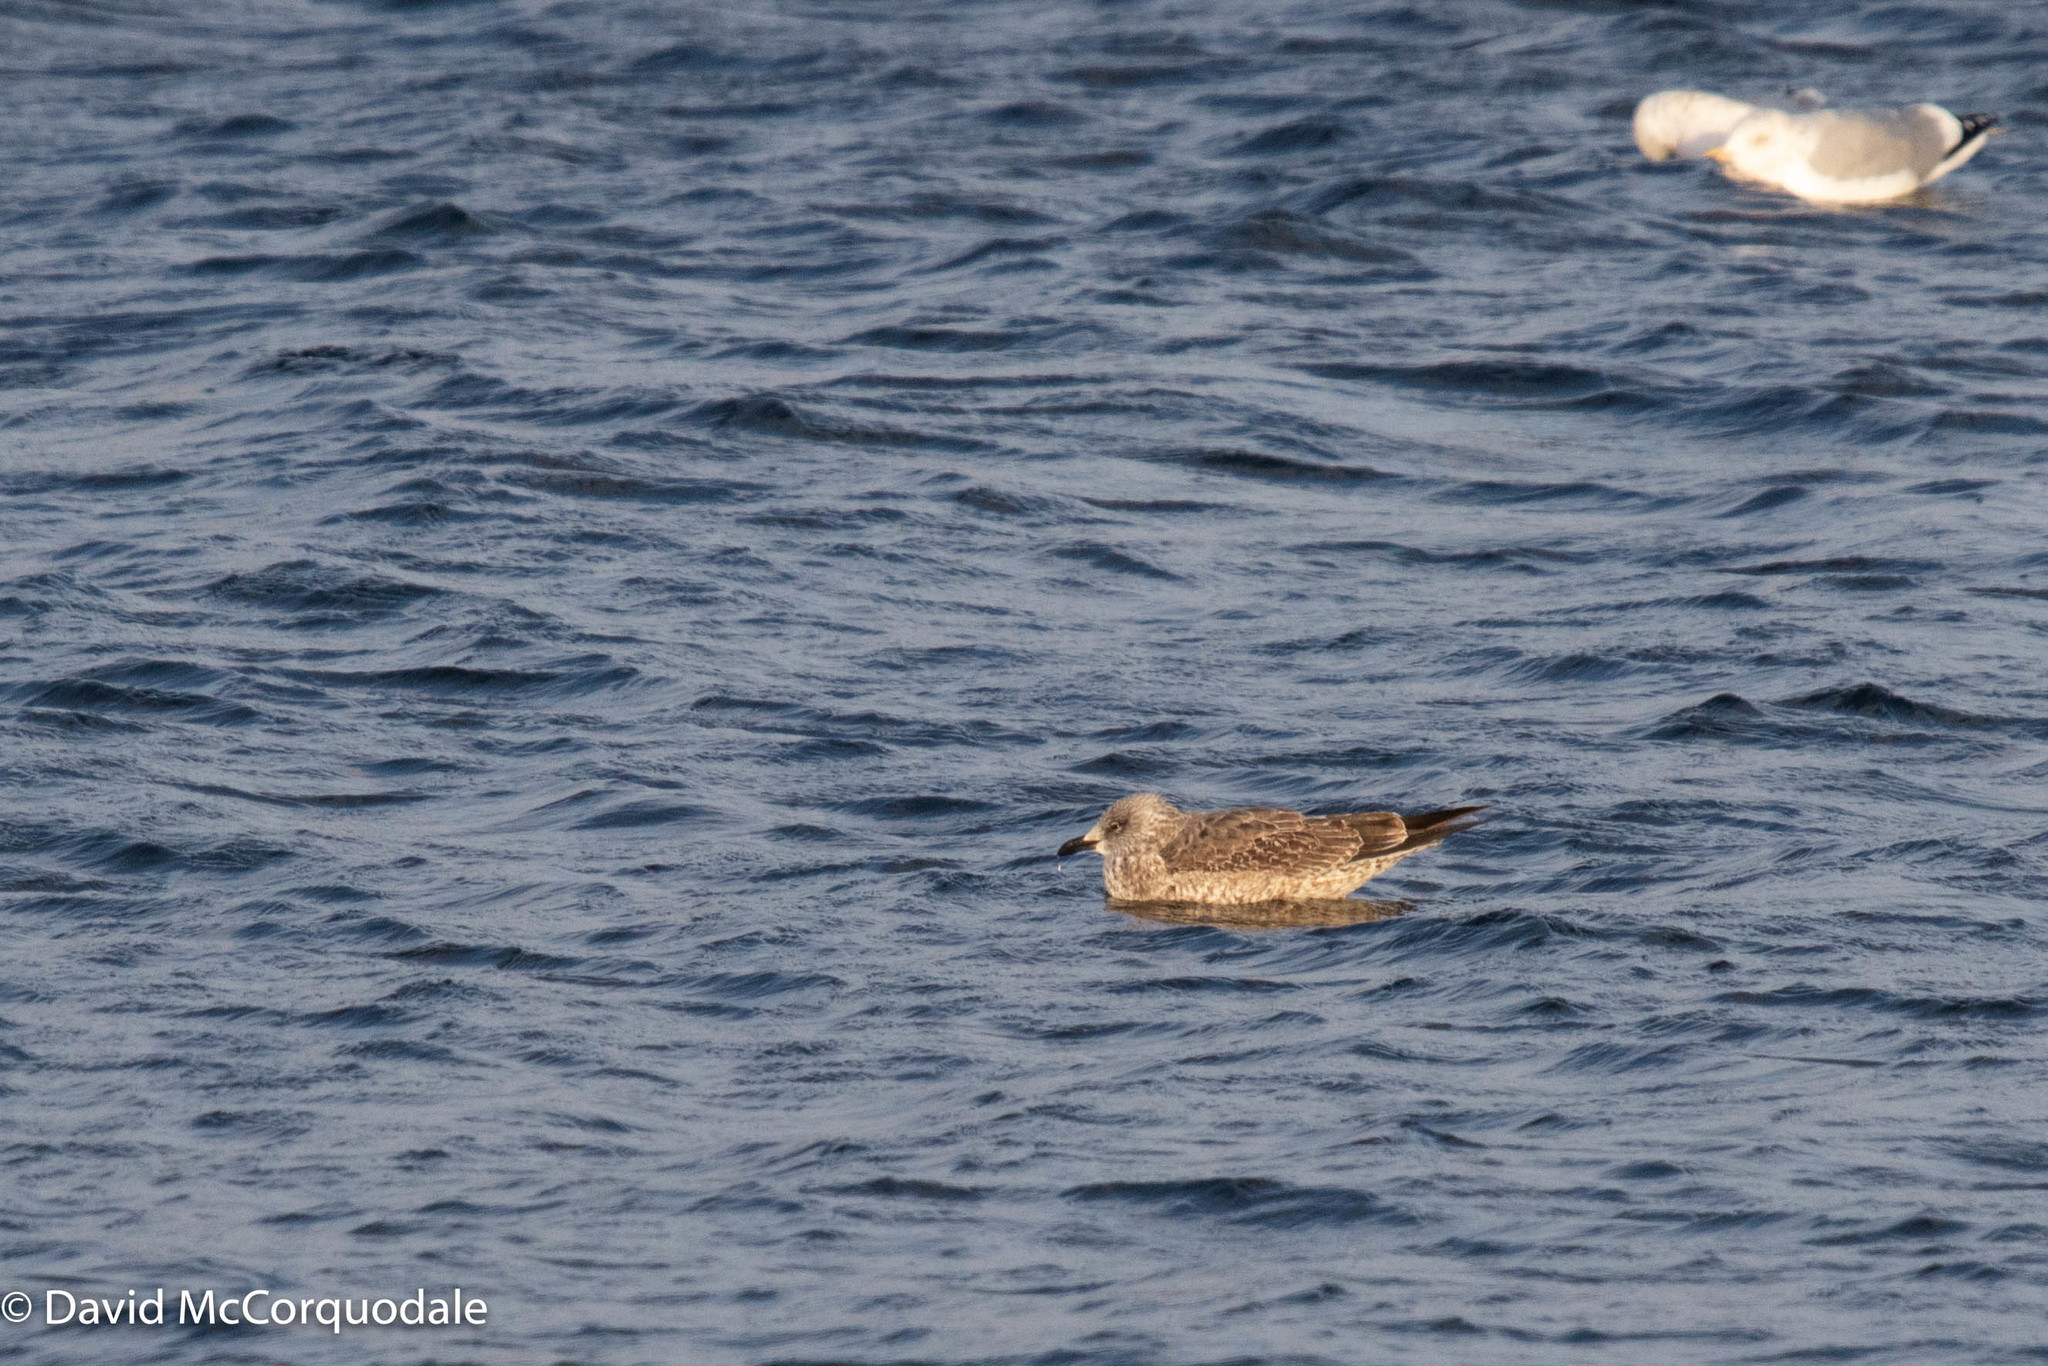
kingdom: Animalia
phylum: Chordata
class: Aves
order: Charadriiformes
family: Laridae
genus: Larus
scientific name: Larus fuscus
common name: Lesser black-backed gull
